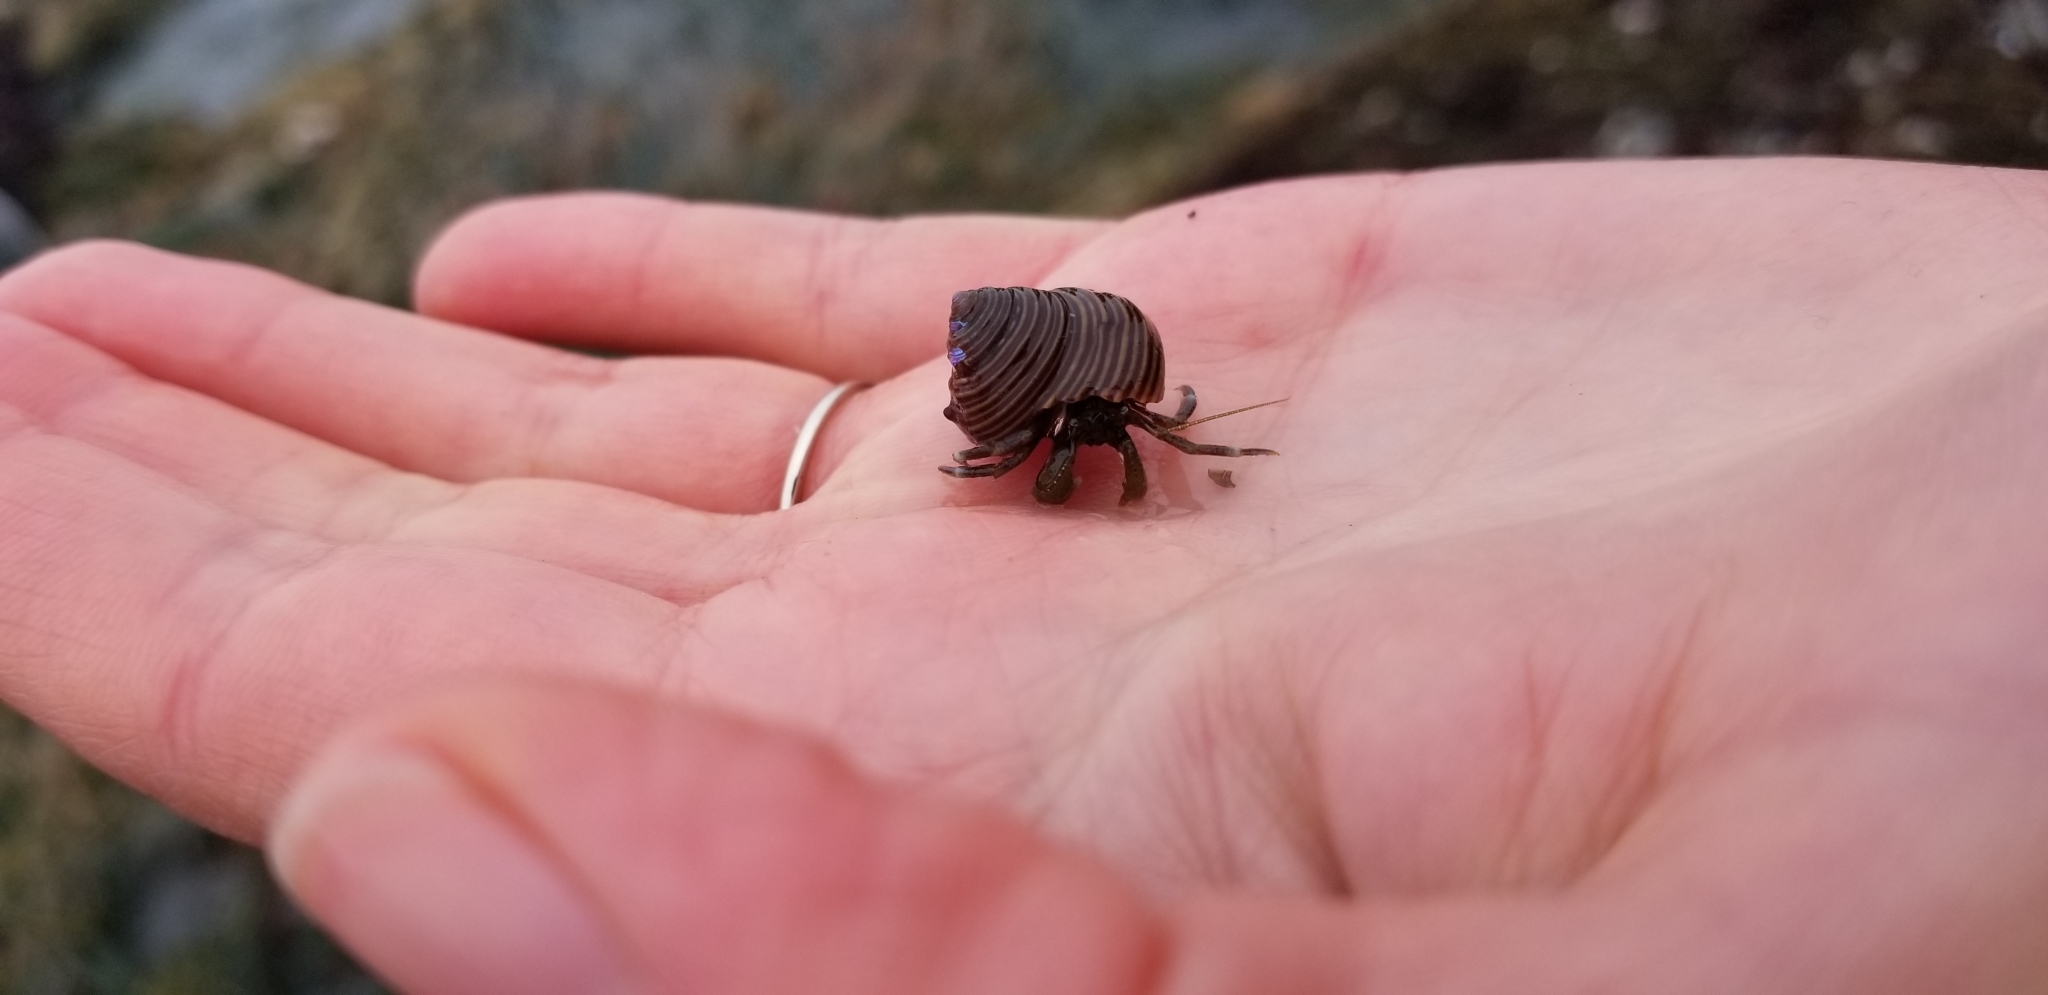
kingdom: Animalia
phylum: Arthropoda
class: Malacostraca
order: Decapoda
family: Paguridae
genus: Pagurus
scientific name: Pagurus venturensis
